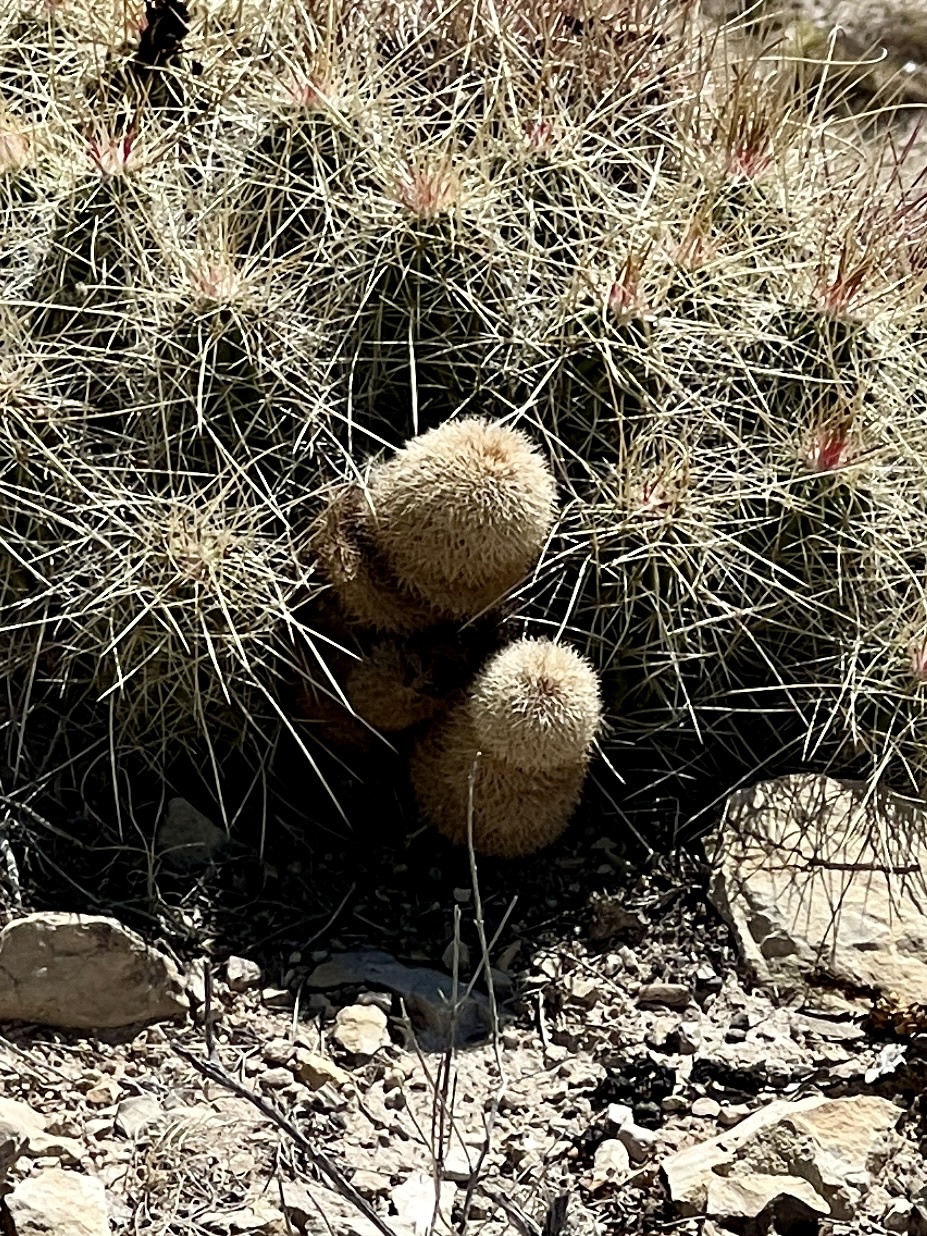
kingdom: Plantae
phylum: Tracheophyta
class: Magnoliopsida
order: Caryophyllales
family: Cactaceae
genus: Echinocereus
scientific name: Echinocereus dasyacanthus
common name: Spiny hedgehog cactus
